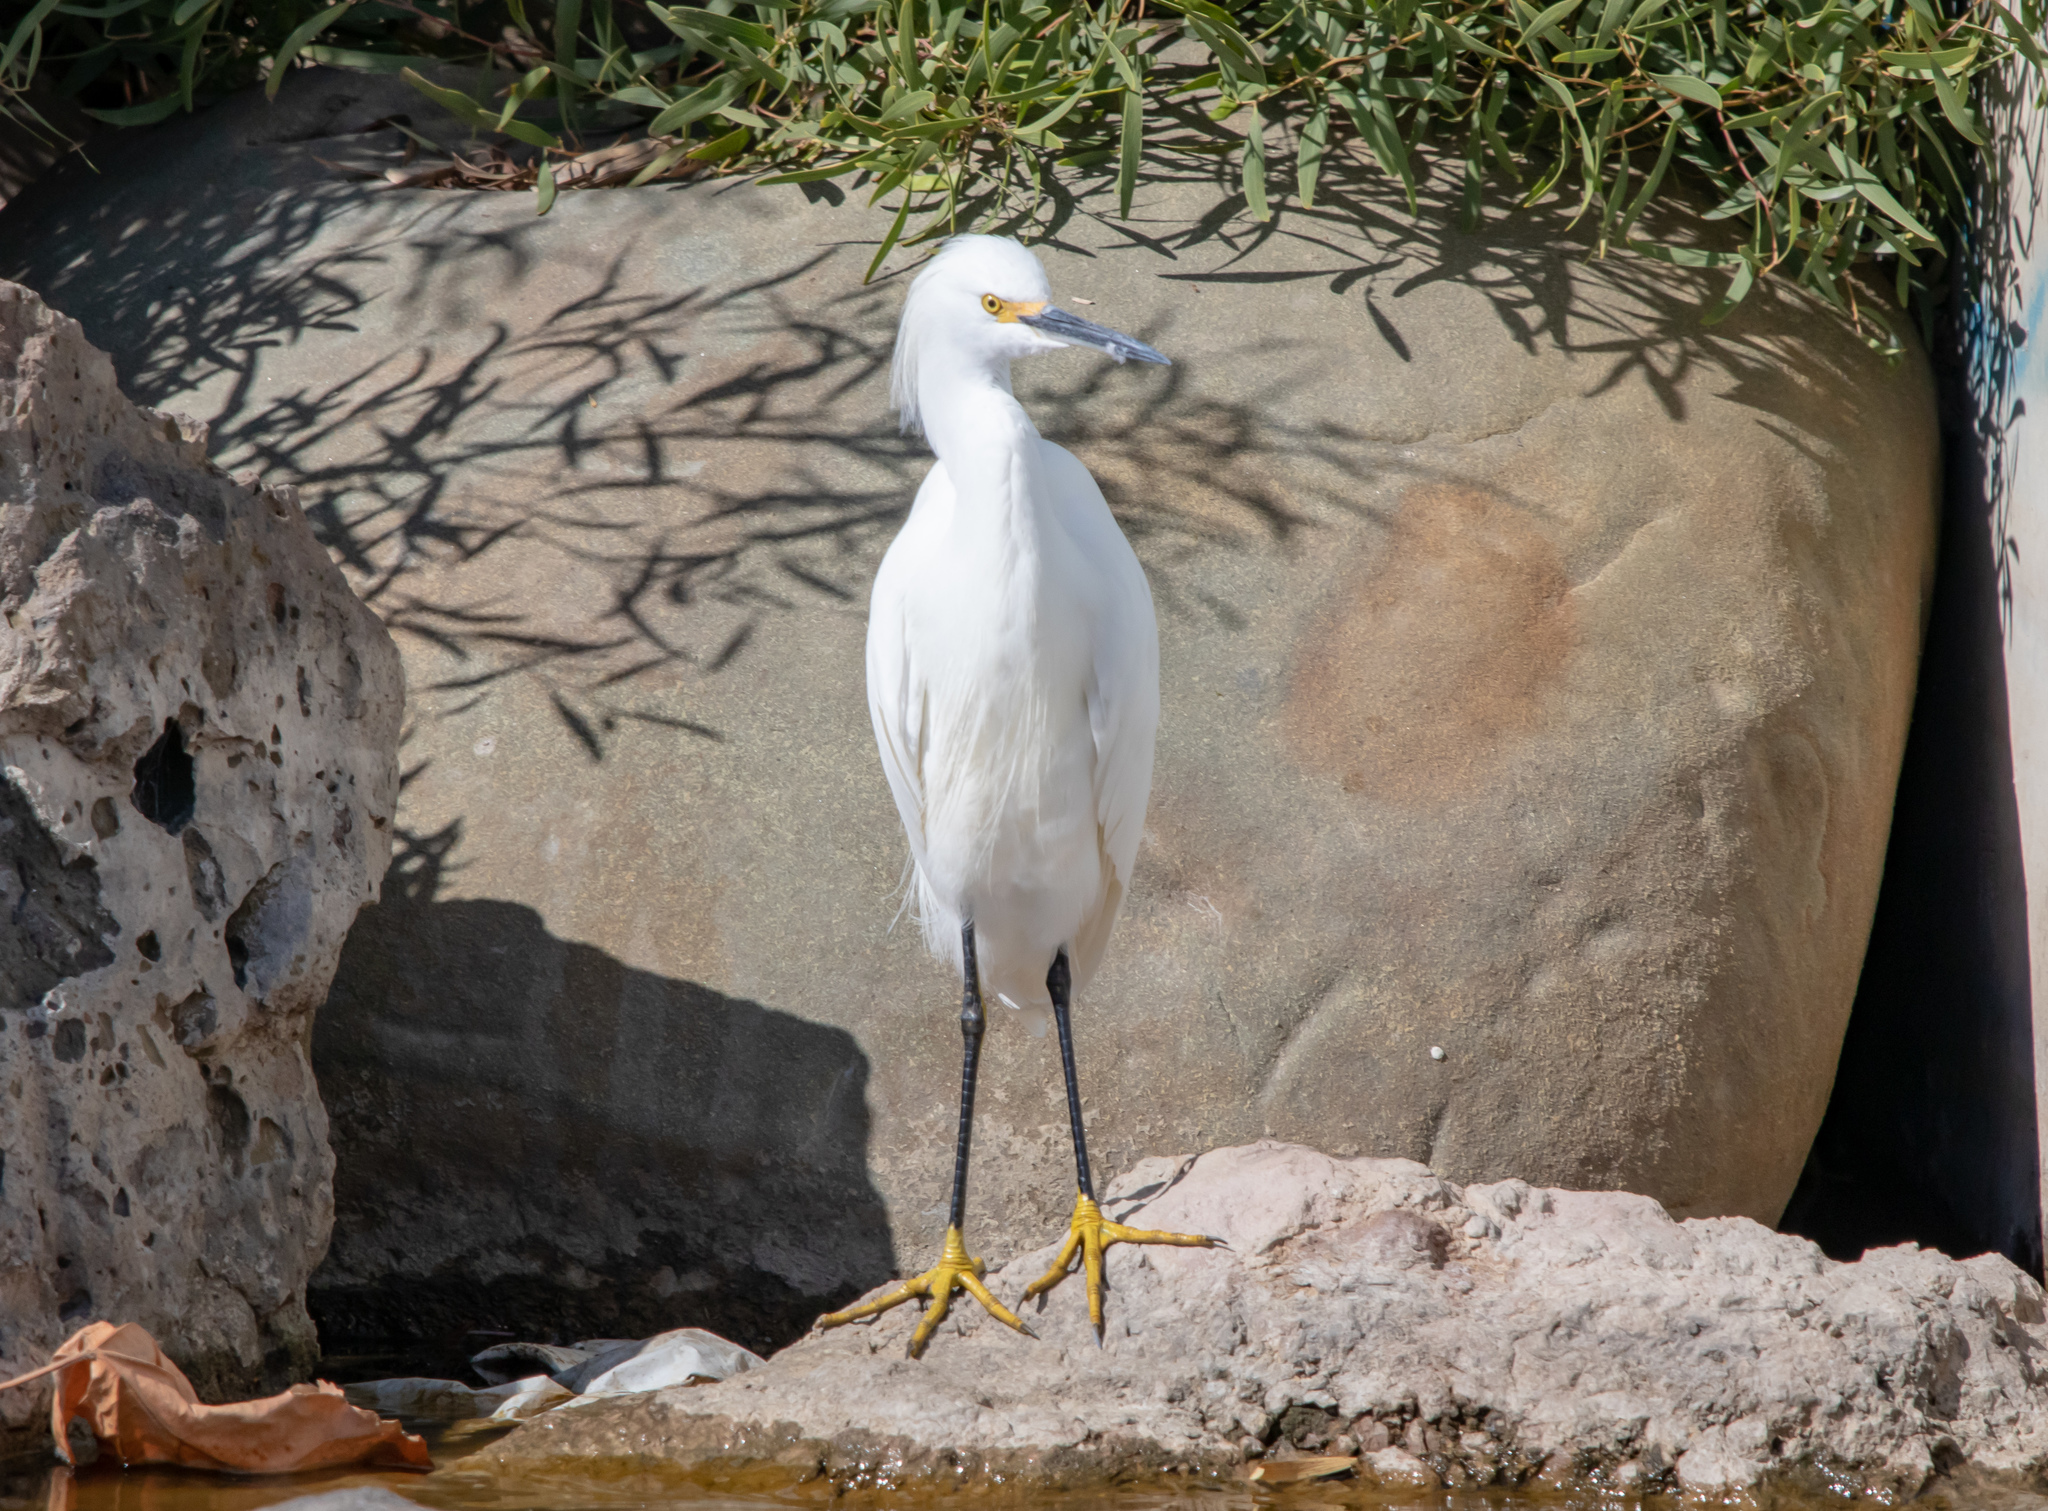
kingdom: Animalia
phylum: Chordata
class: Aves
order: Pelecaniformes
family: Ardeidae
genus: Egretta
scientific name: Egretta thula
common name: Snowy egret
